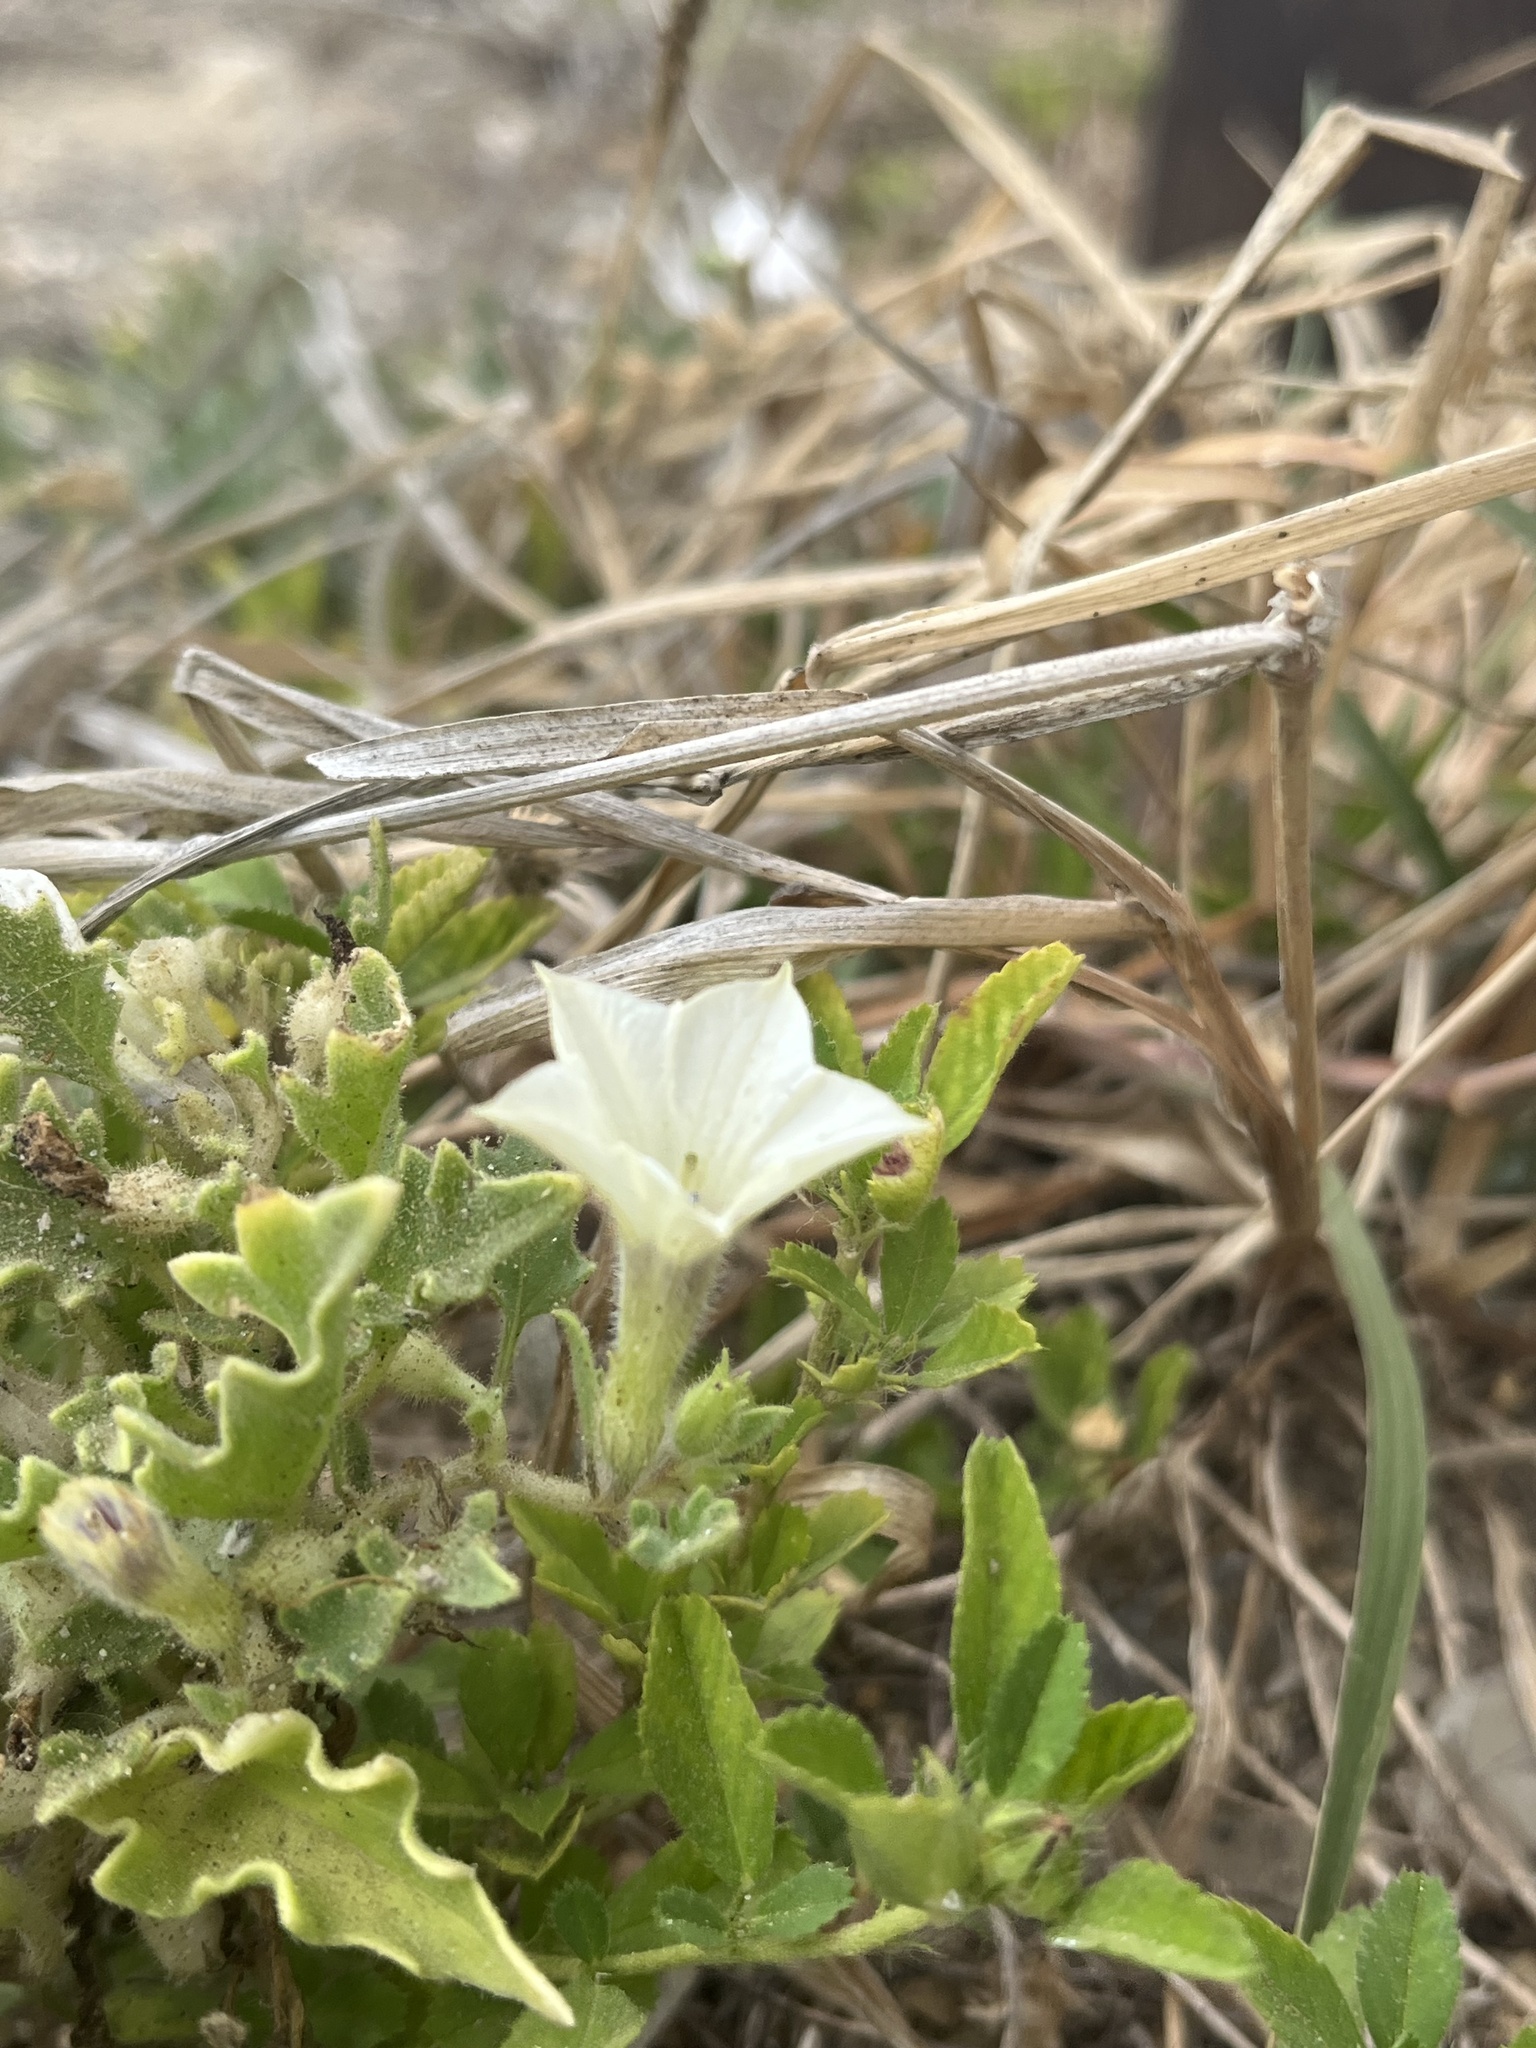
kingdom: Plantae
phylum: Tracheophyta
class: Magnoliopsida
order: Solanales
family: Solanaceae
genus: Exodeconus
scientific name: Exodeconus maritima
